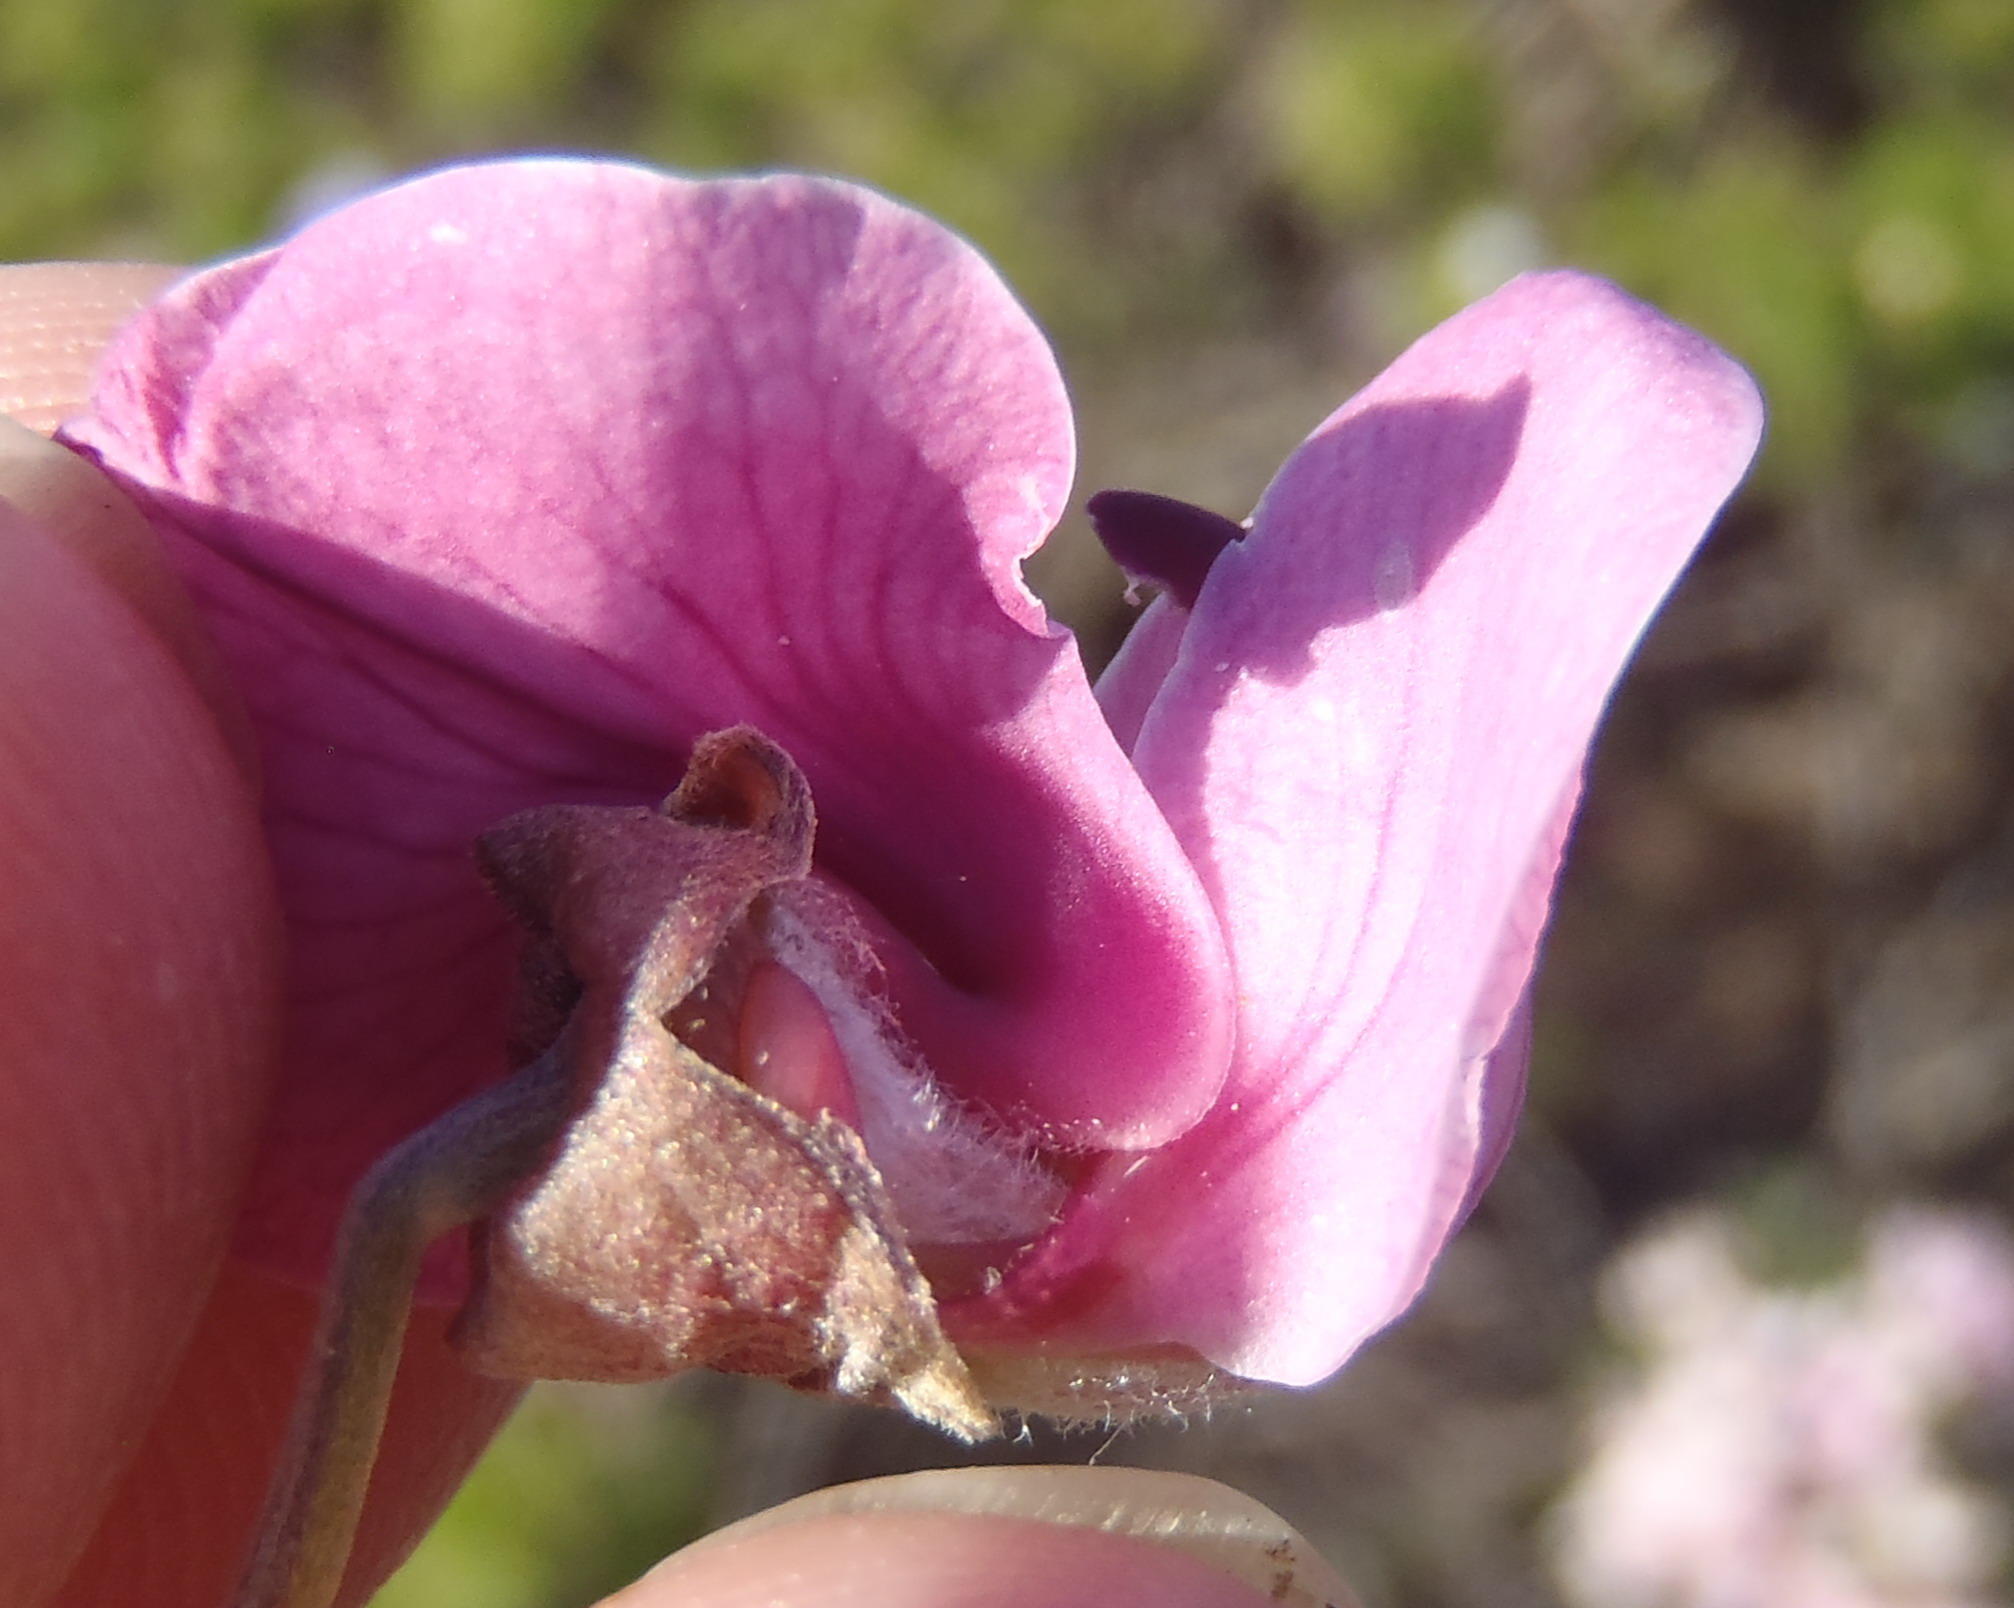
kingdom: Plantae
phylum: Tracheophyta
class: Magnoliopsida
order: Fabales
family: Fabaceae
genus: Virgilia
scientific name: Virgilia divaricata
